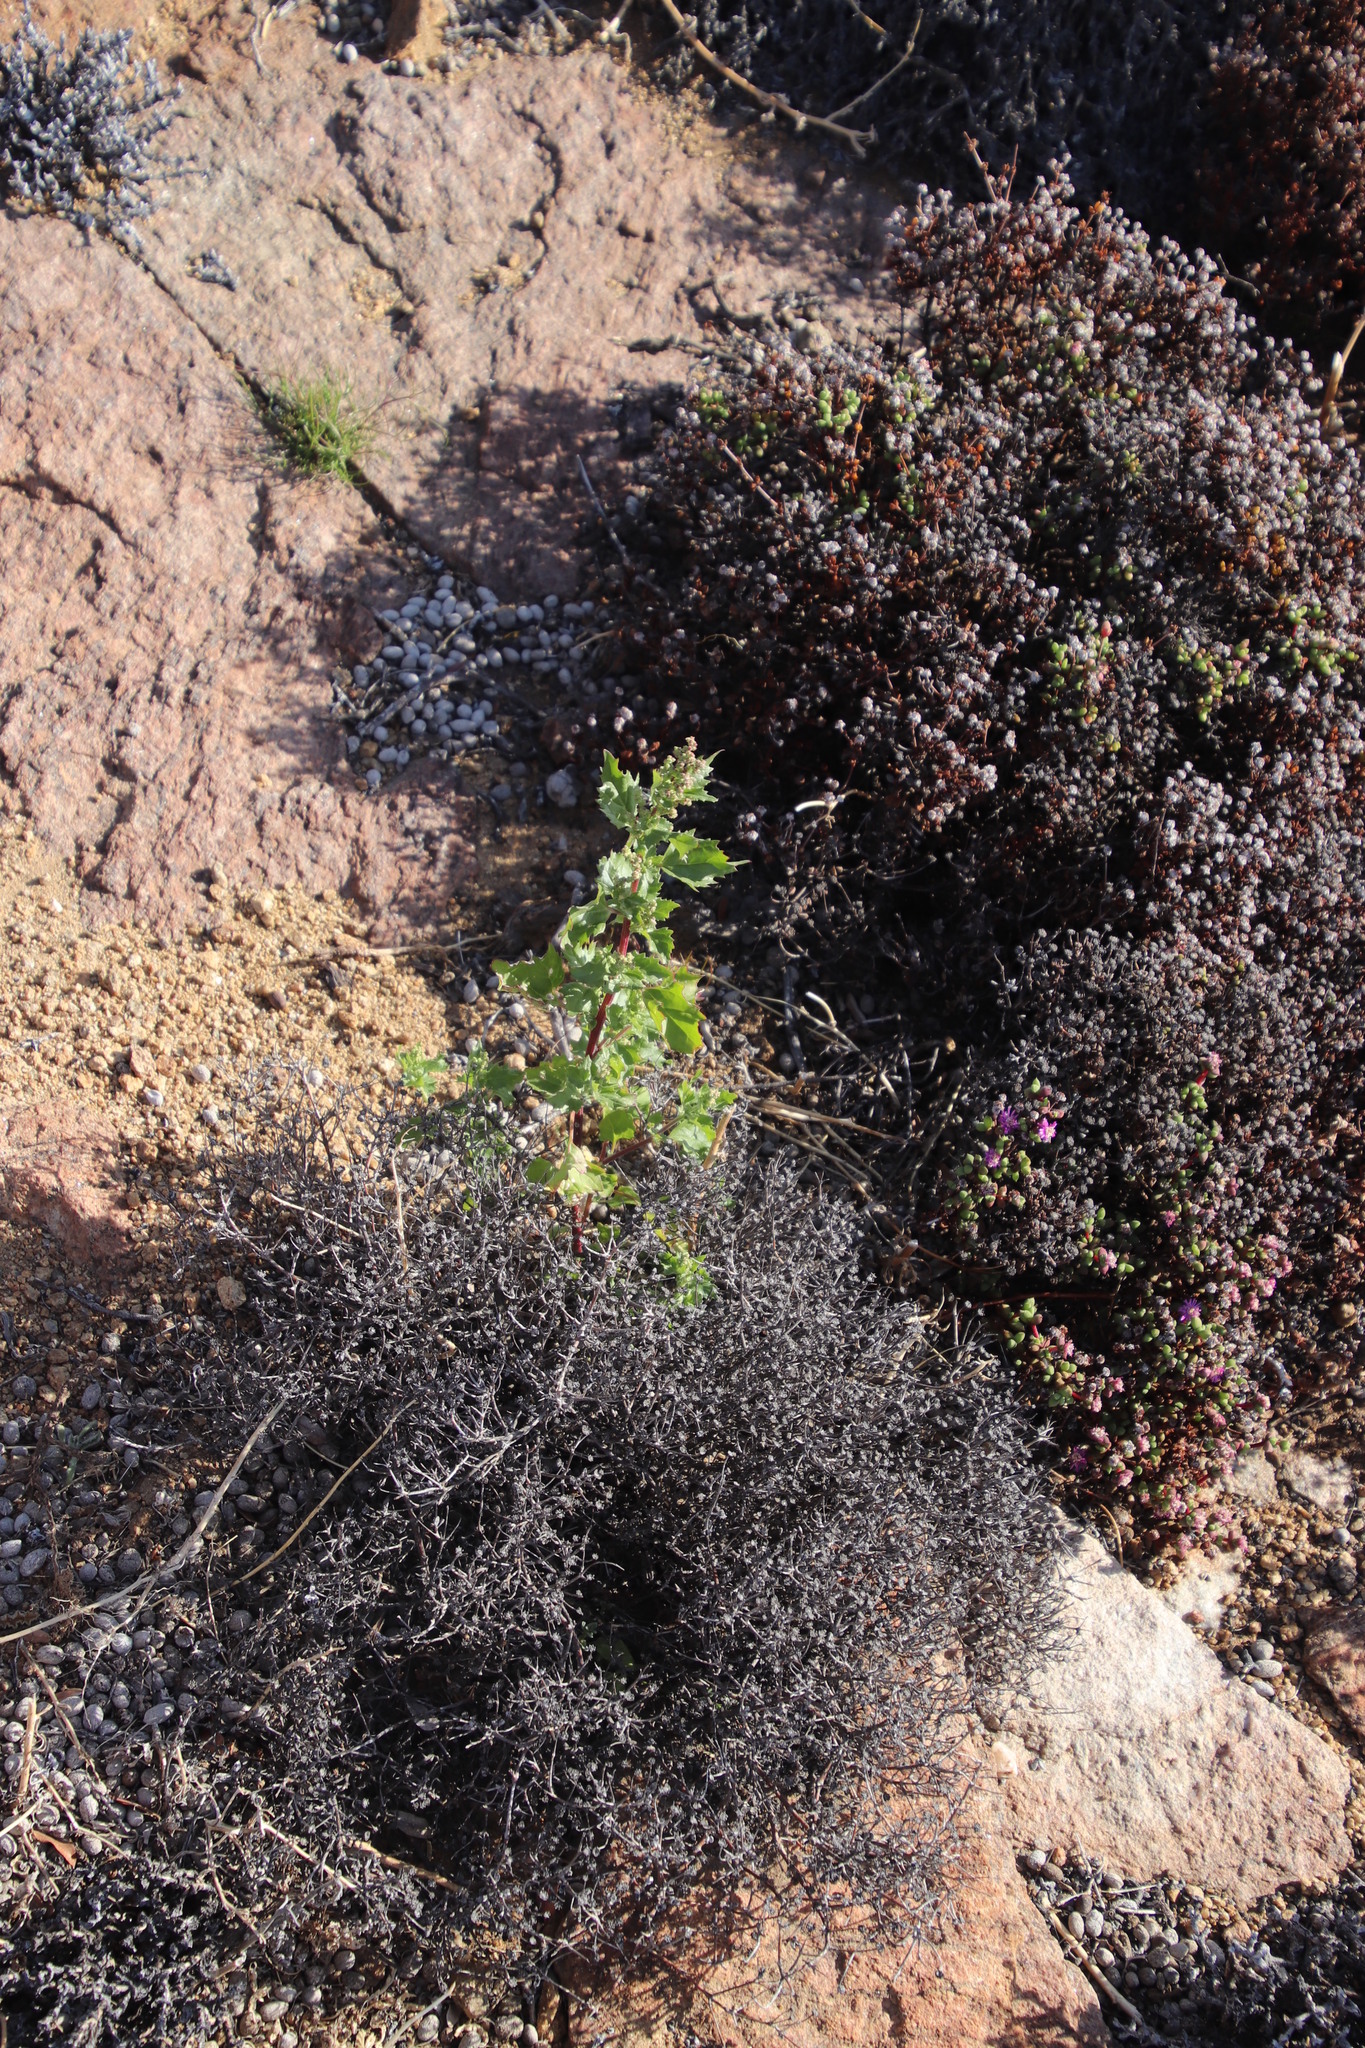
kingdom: Plantae
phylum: Tracheophyta
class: Magnoliopsida
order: Caryophyllales
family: Amaranthaceae
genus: Chenopodiastrum
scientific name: Chenopodiastrum murale
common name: Sowbane
